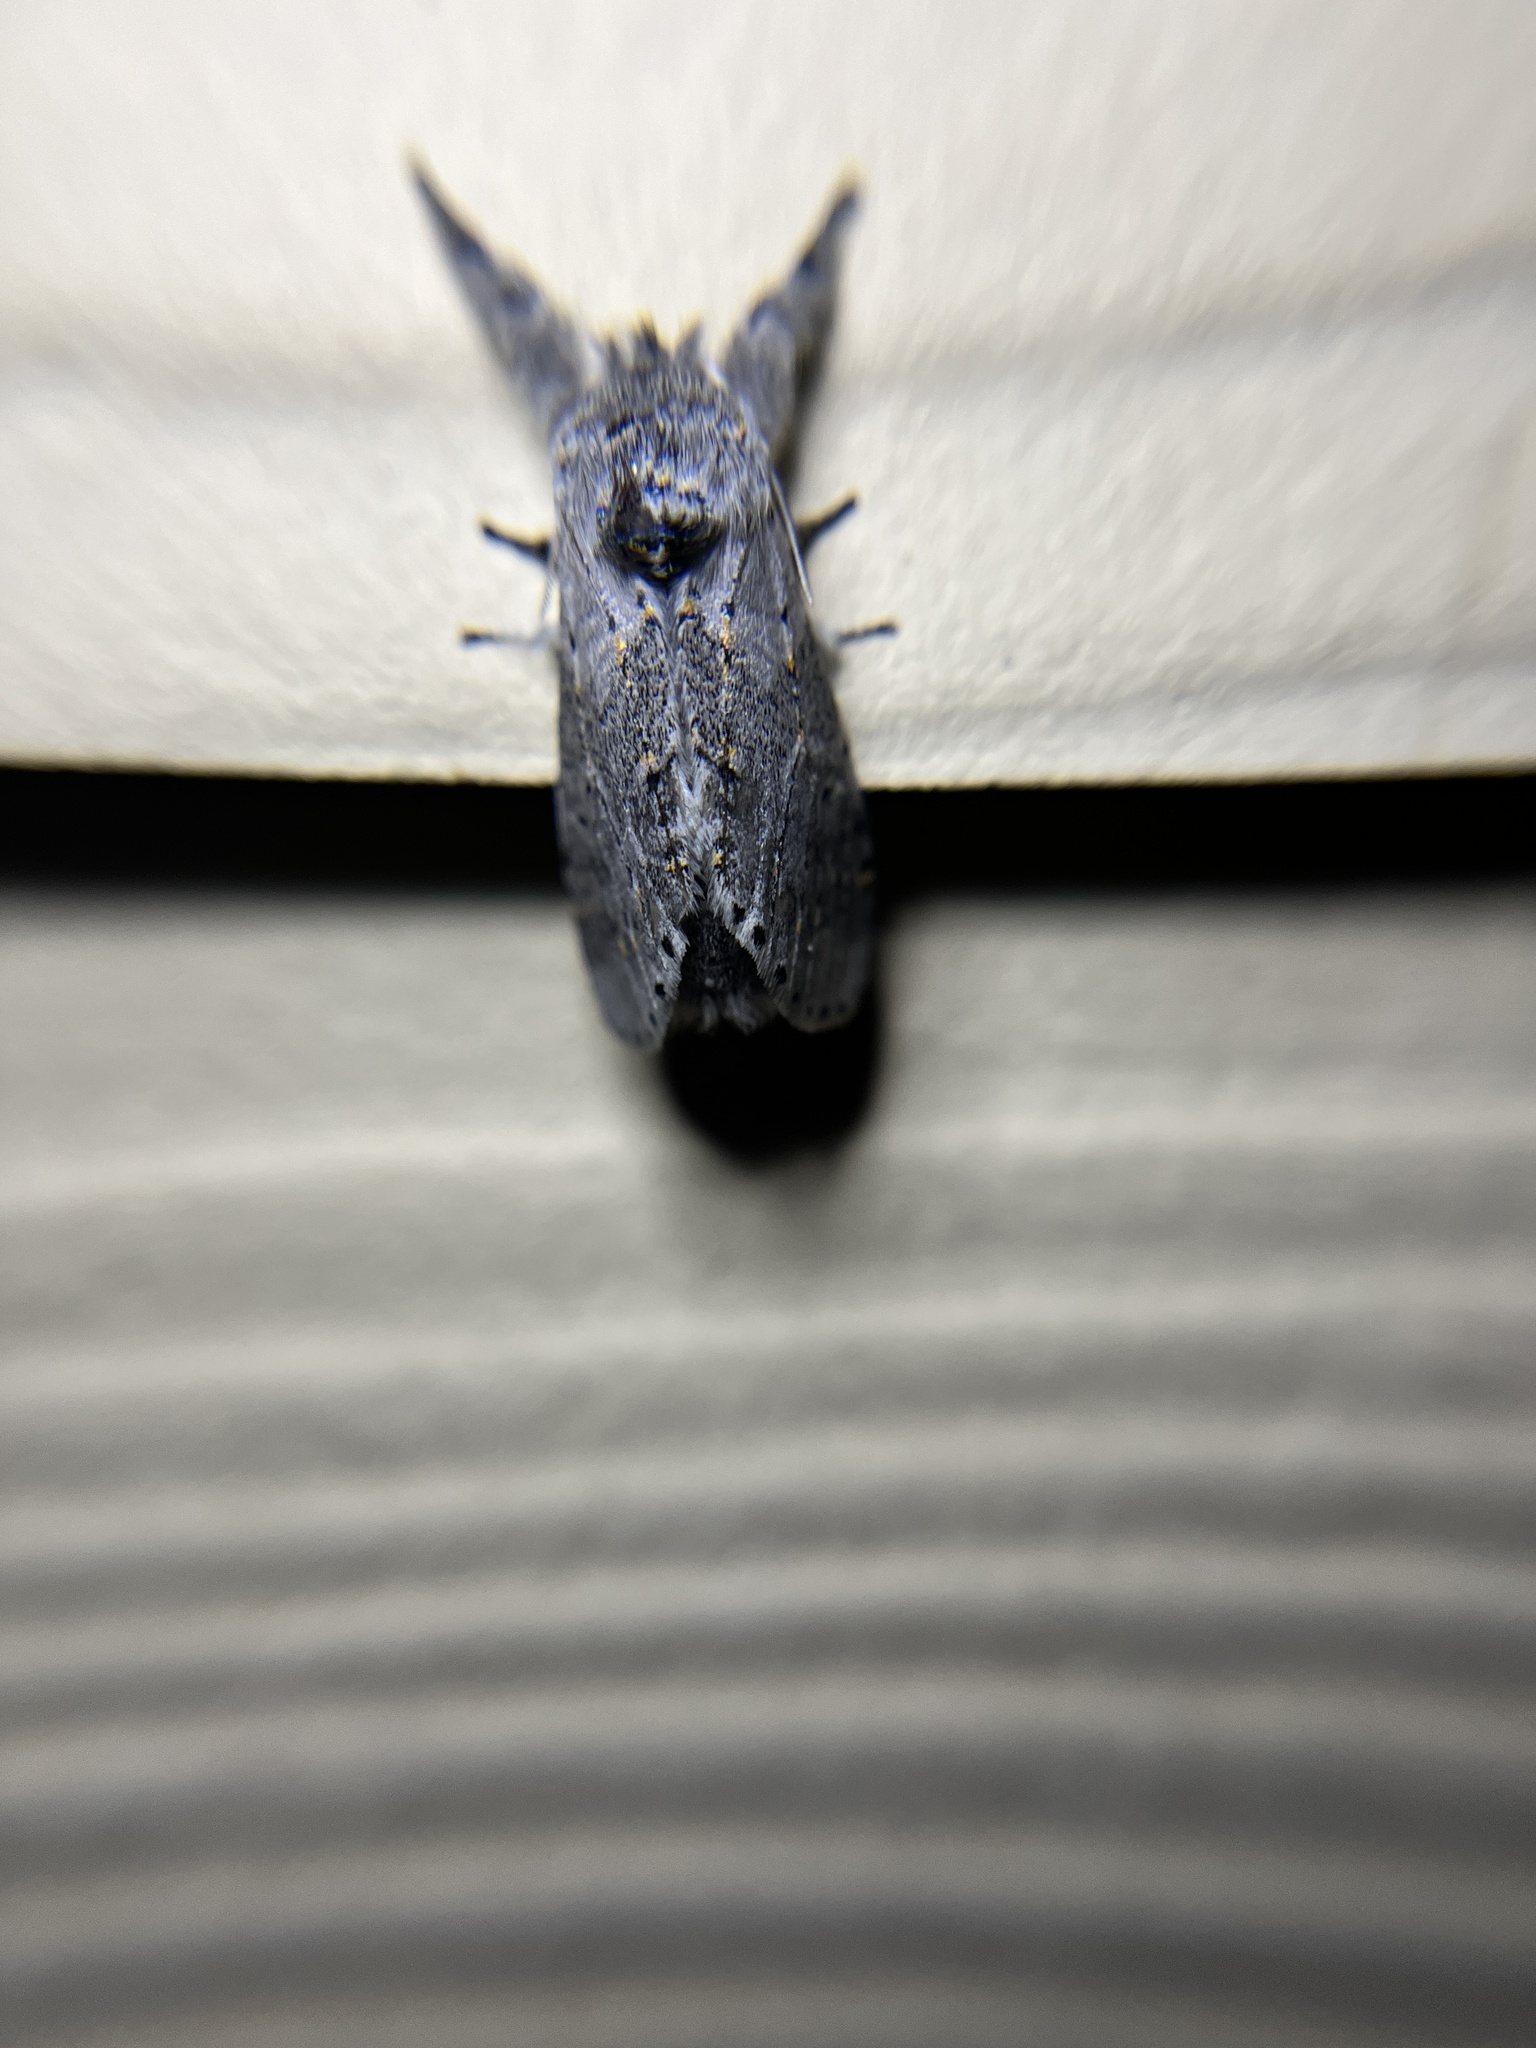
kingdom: Animalia
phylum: Arthropoda
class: Insecta
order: Lepidoptera
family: Notodontidae
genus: Furcula
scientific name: Furcula cinerea
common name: Gray furcula
